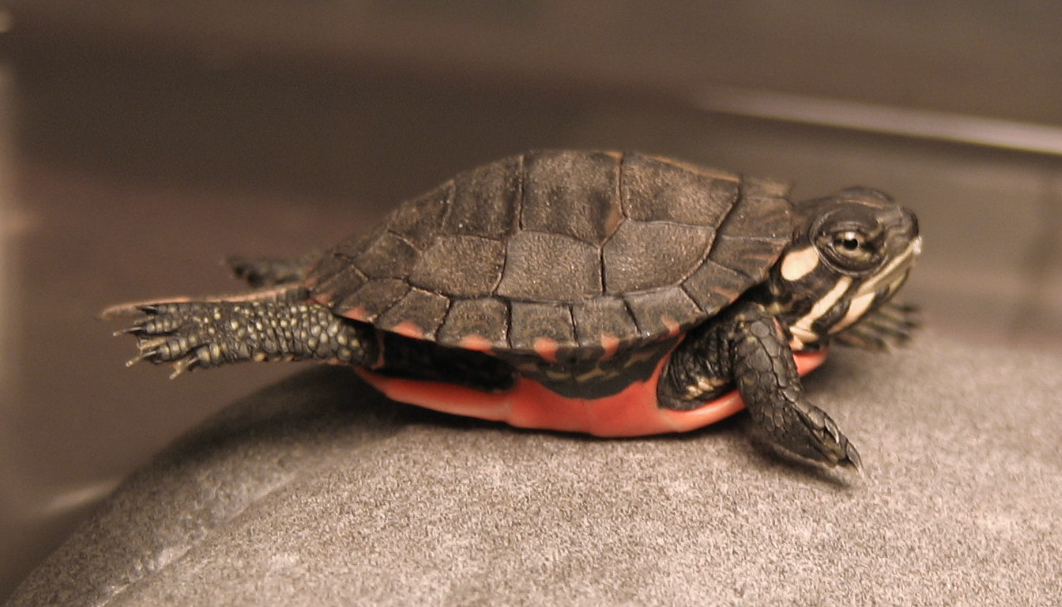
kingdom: Animalia
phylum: Chordata
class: Testudines
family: Emydidae
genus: Chrysemys
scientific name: Chrysemys picta
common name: Painted turtle
